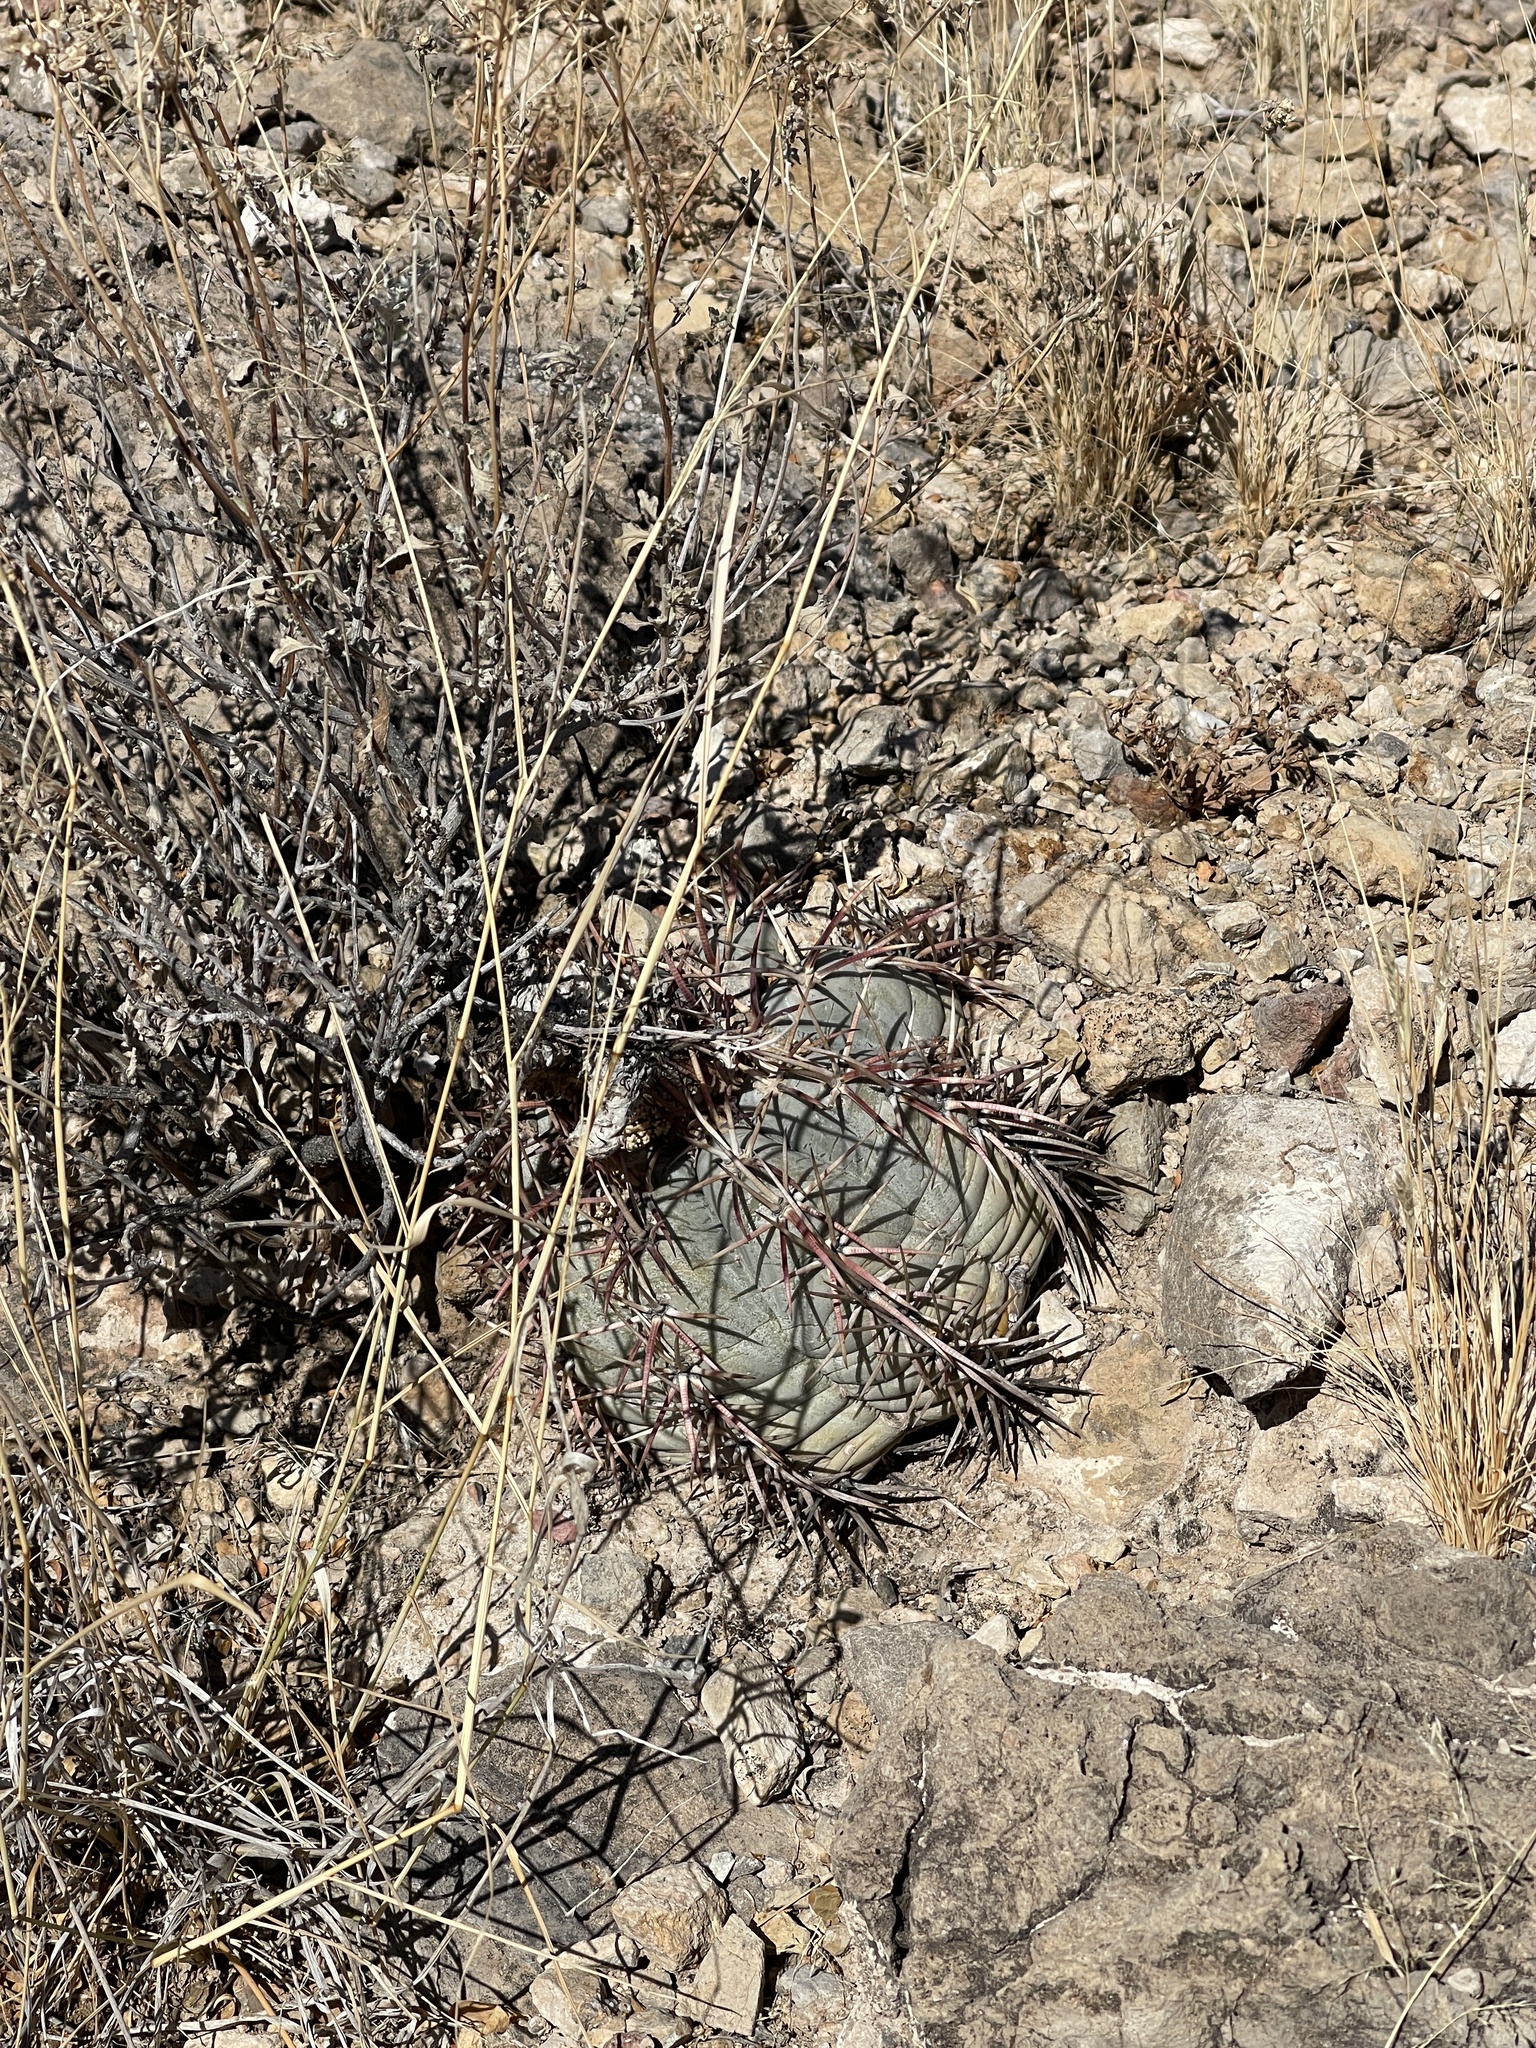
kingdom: Plantae
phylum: Tracheophyta
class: Magnoliopsida
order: Caryophyllales
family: Cactaceae
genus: Echinocactus
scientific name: Echinocactus horizonthalonius
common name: Devilshead
